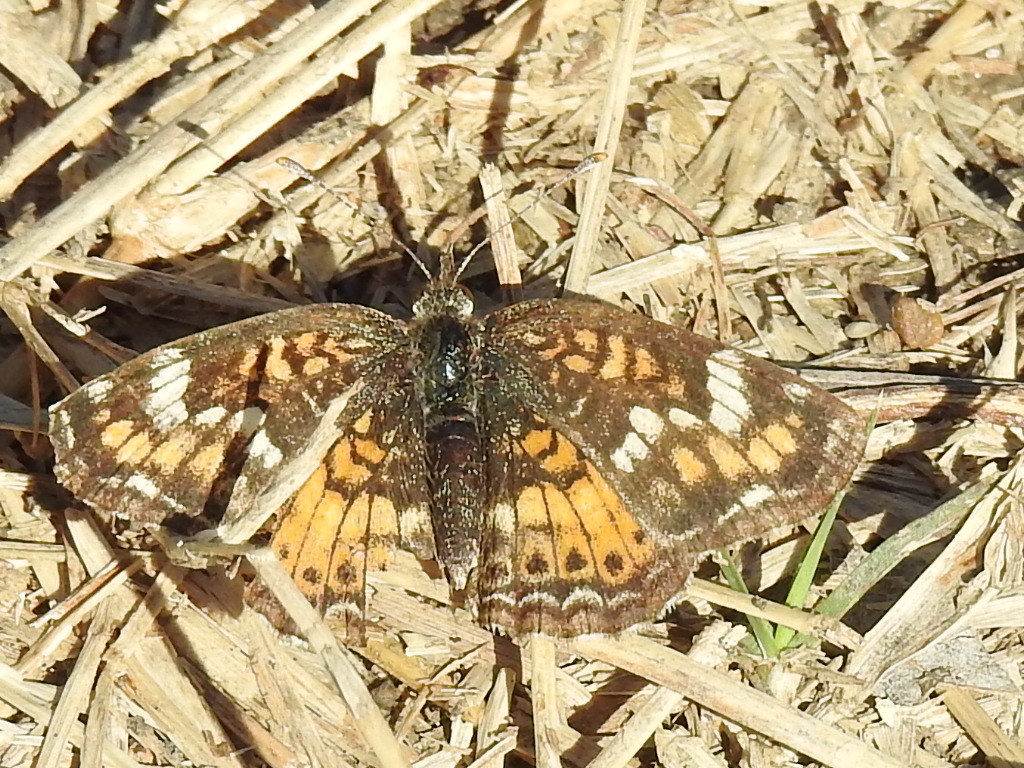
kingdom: Animalia
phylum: Arthropoda
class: Insecta
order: Lepidoptera
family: Nymphalidae
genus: Phyciodes
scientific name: Phyciodes phaon
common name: Phaon crescent
